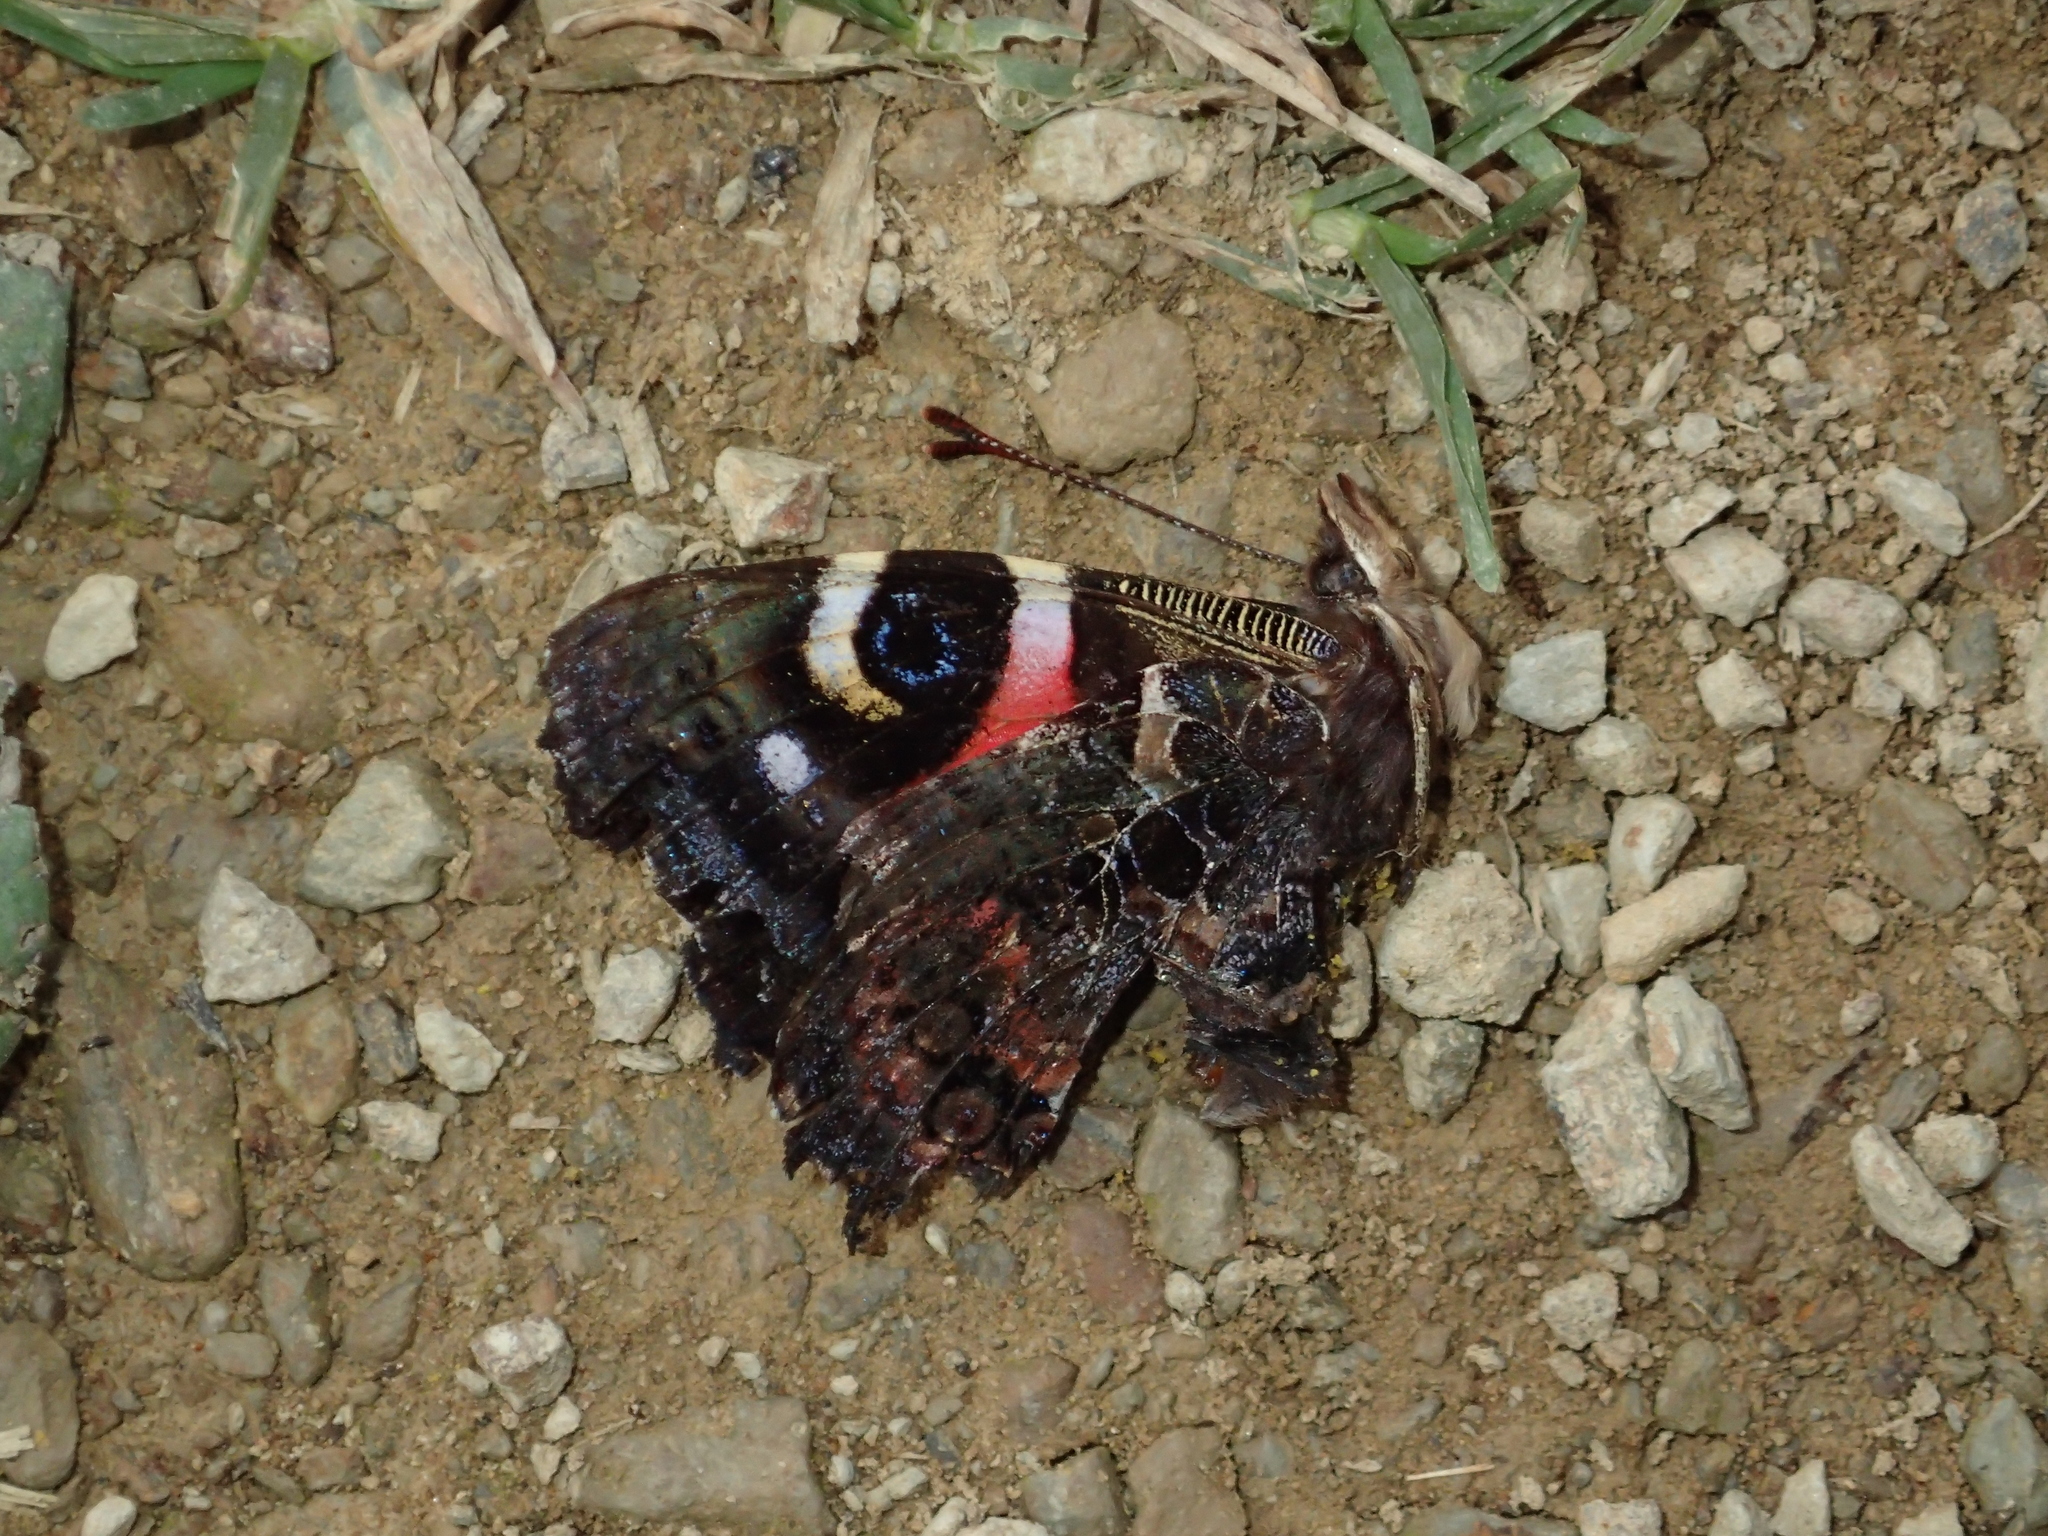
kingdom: Animalia
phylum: Arthropoda
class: Insecta
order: Lepidoptera
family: Nymphalidae
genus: Vanessa
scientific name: Vanessa gonerilla
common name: New zealand red admiral
